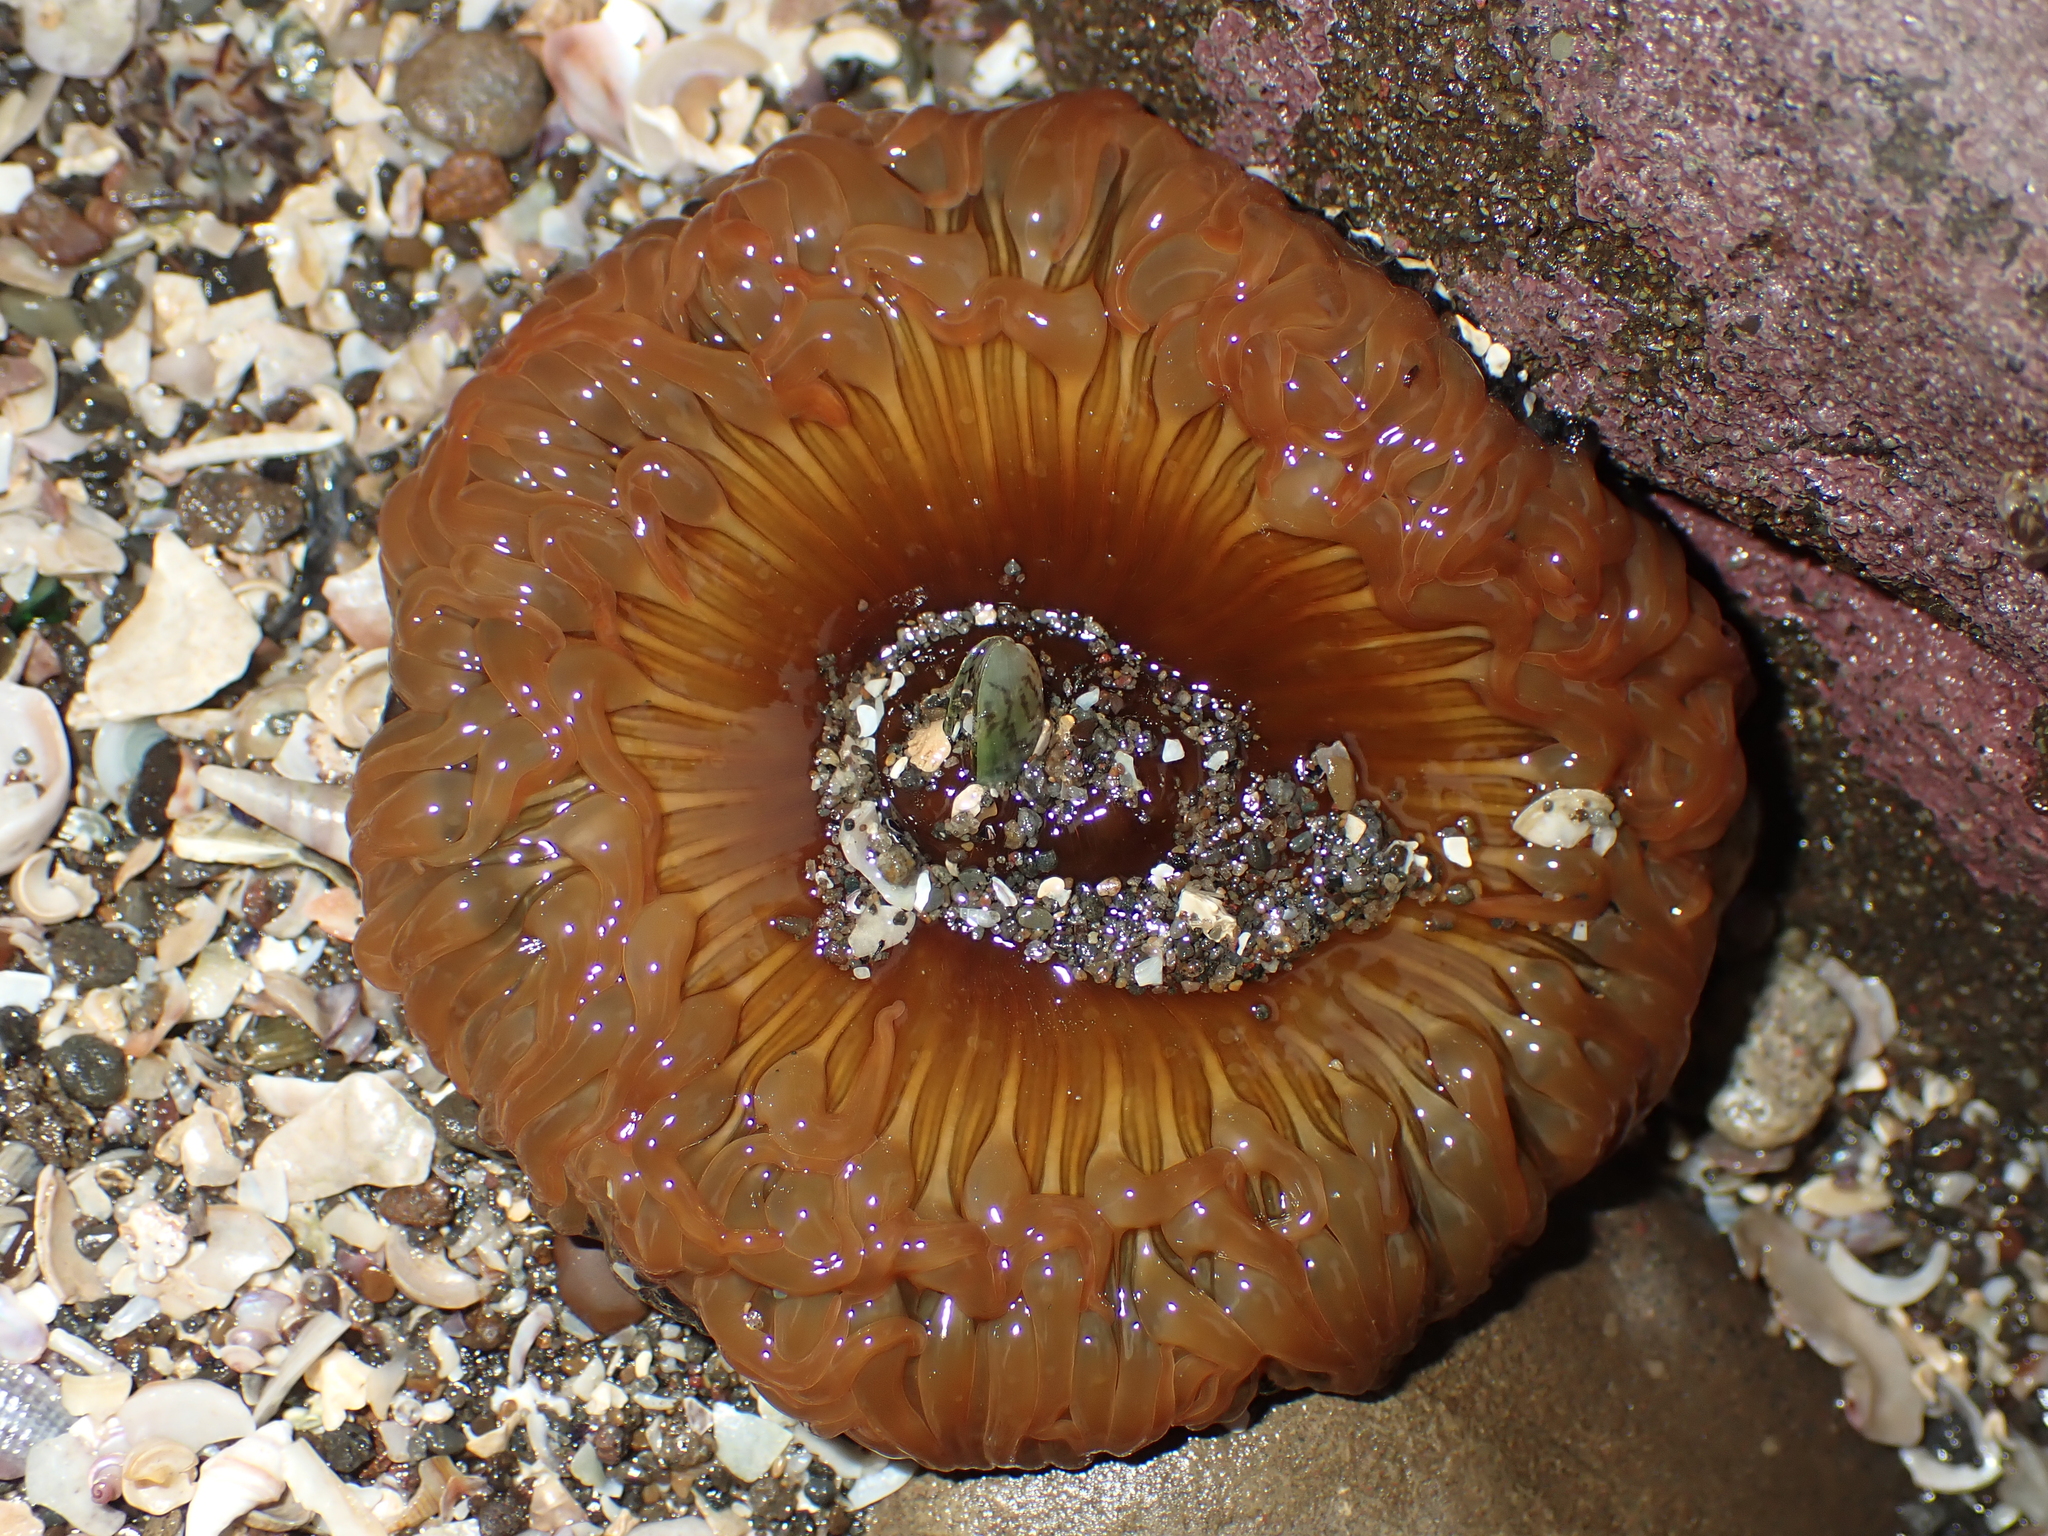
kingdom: Animalia
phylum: Cnidaria
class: Anthozoa
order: Actiniaria
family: Actiniidae
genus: Oulactis
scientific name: Oulactis magna
